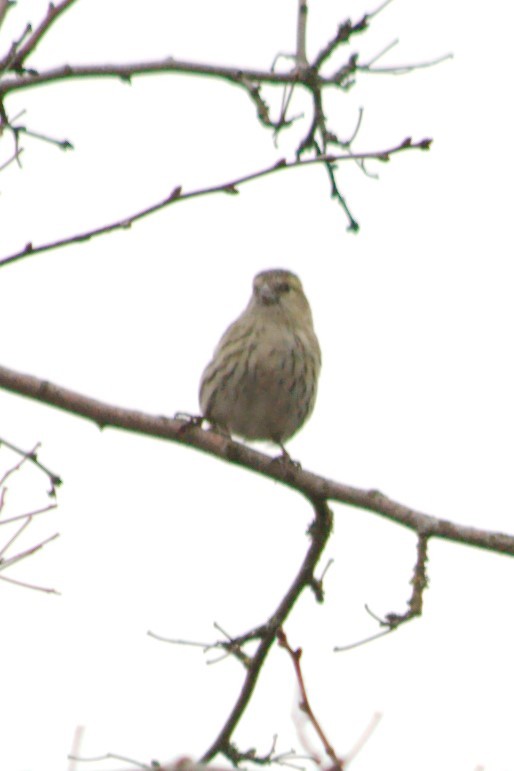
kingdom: Animalia
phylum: Chordata
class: Aves
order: Passeriformes
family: Fringillidae
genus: Spinus
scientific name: Spinus spinus
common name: Eurasian siskin
